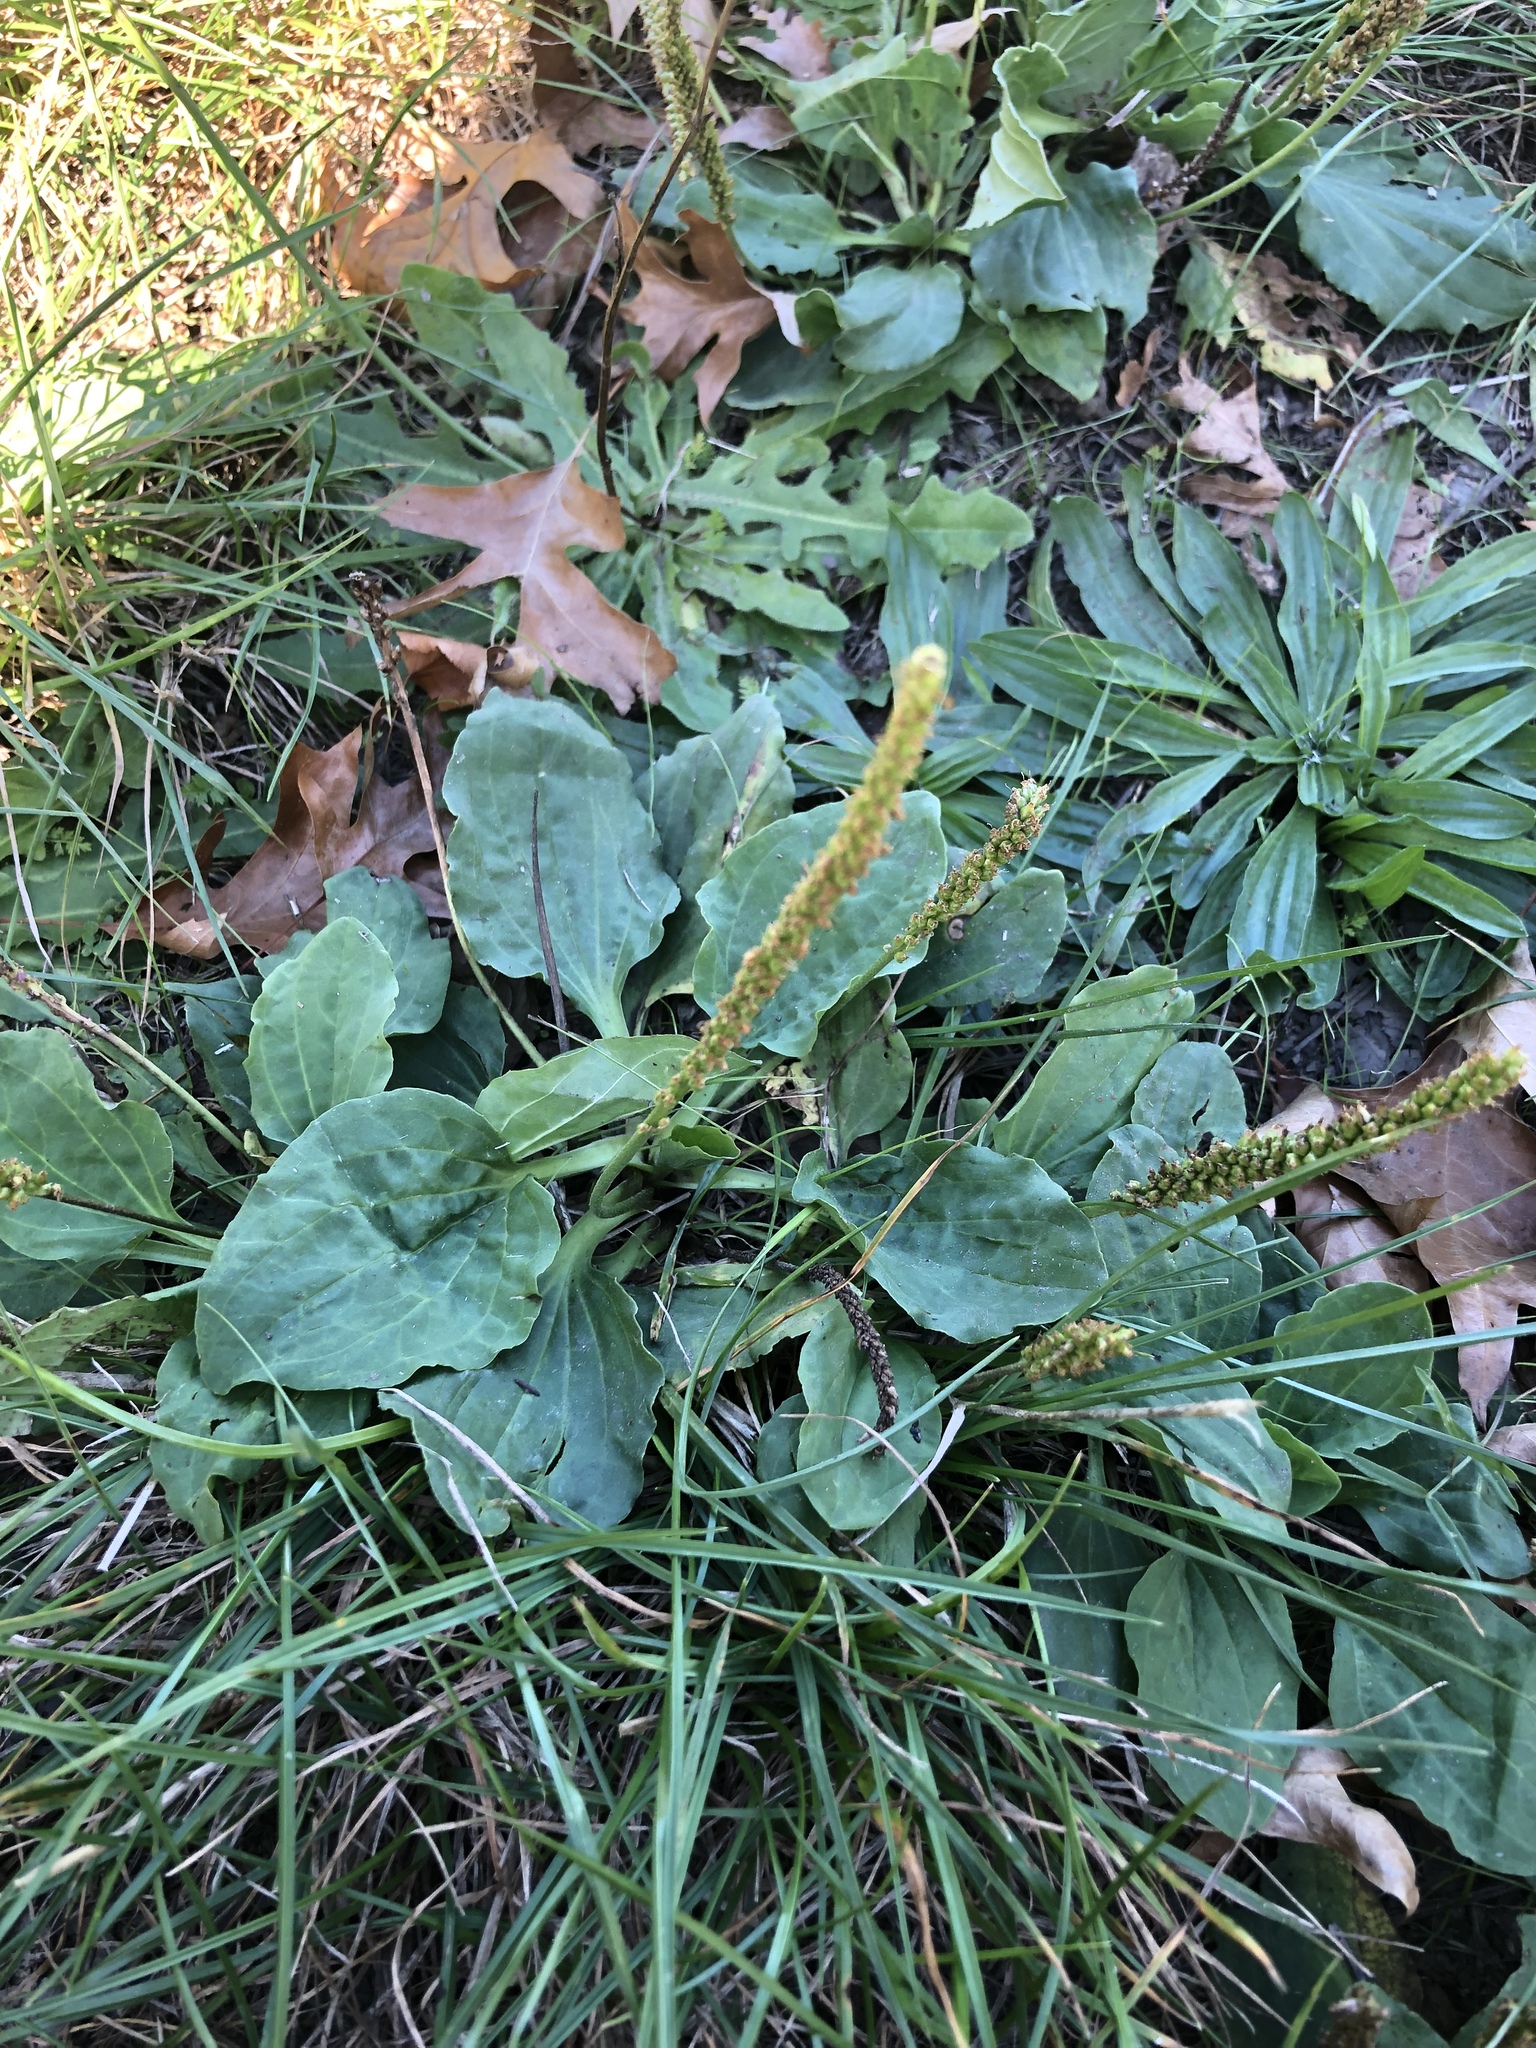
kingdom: Plantae
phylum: Tracheophyta
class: Magnoliopsida
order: Lamiales
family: Plantaginaceae
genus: Plantago
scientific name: Plantago major
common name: Common plantain
